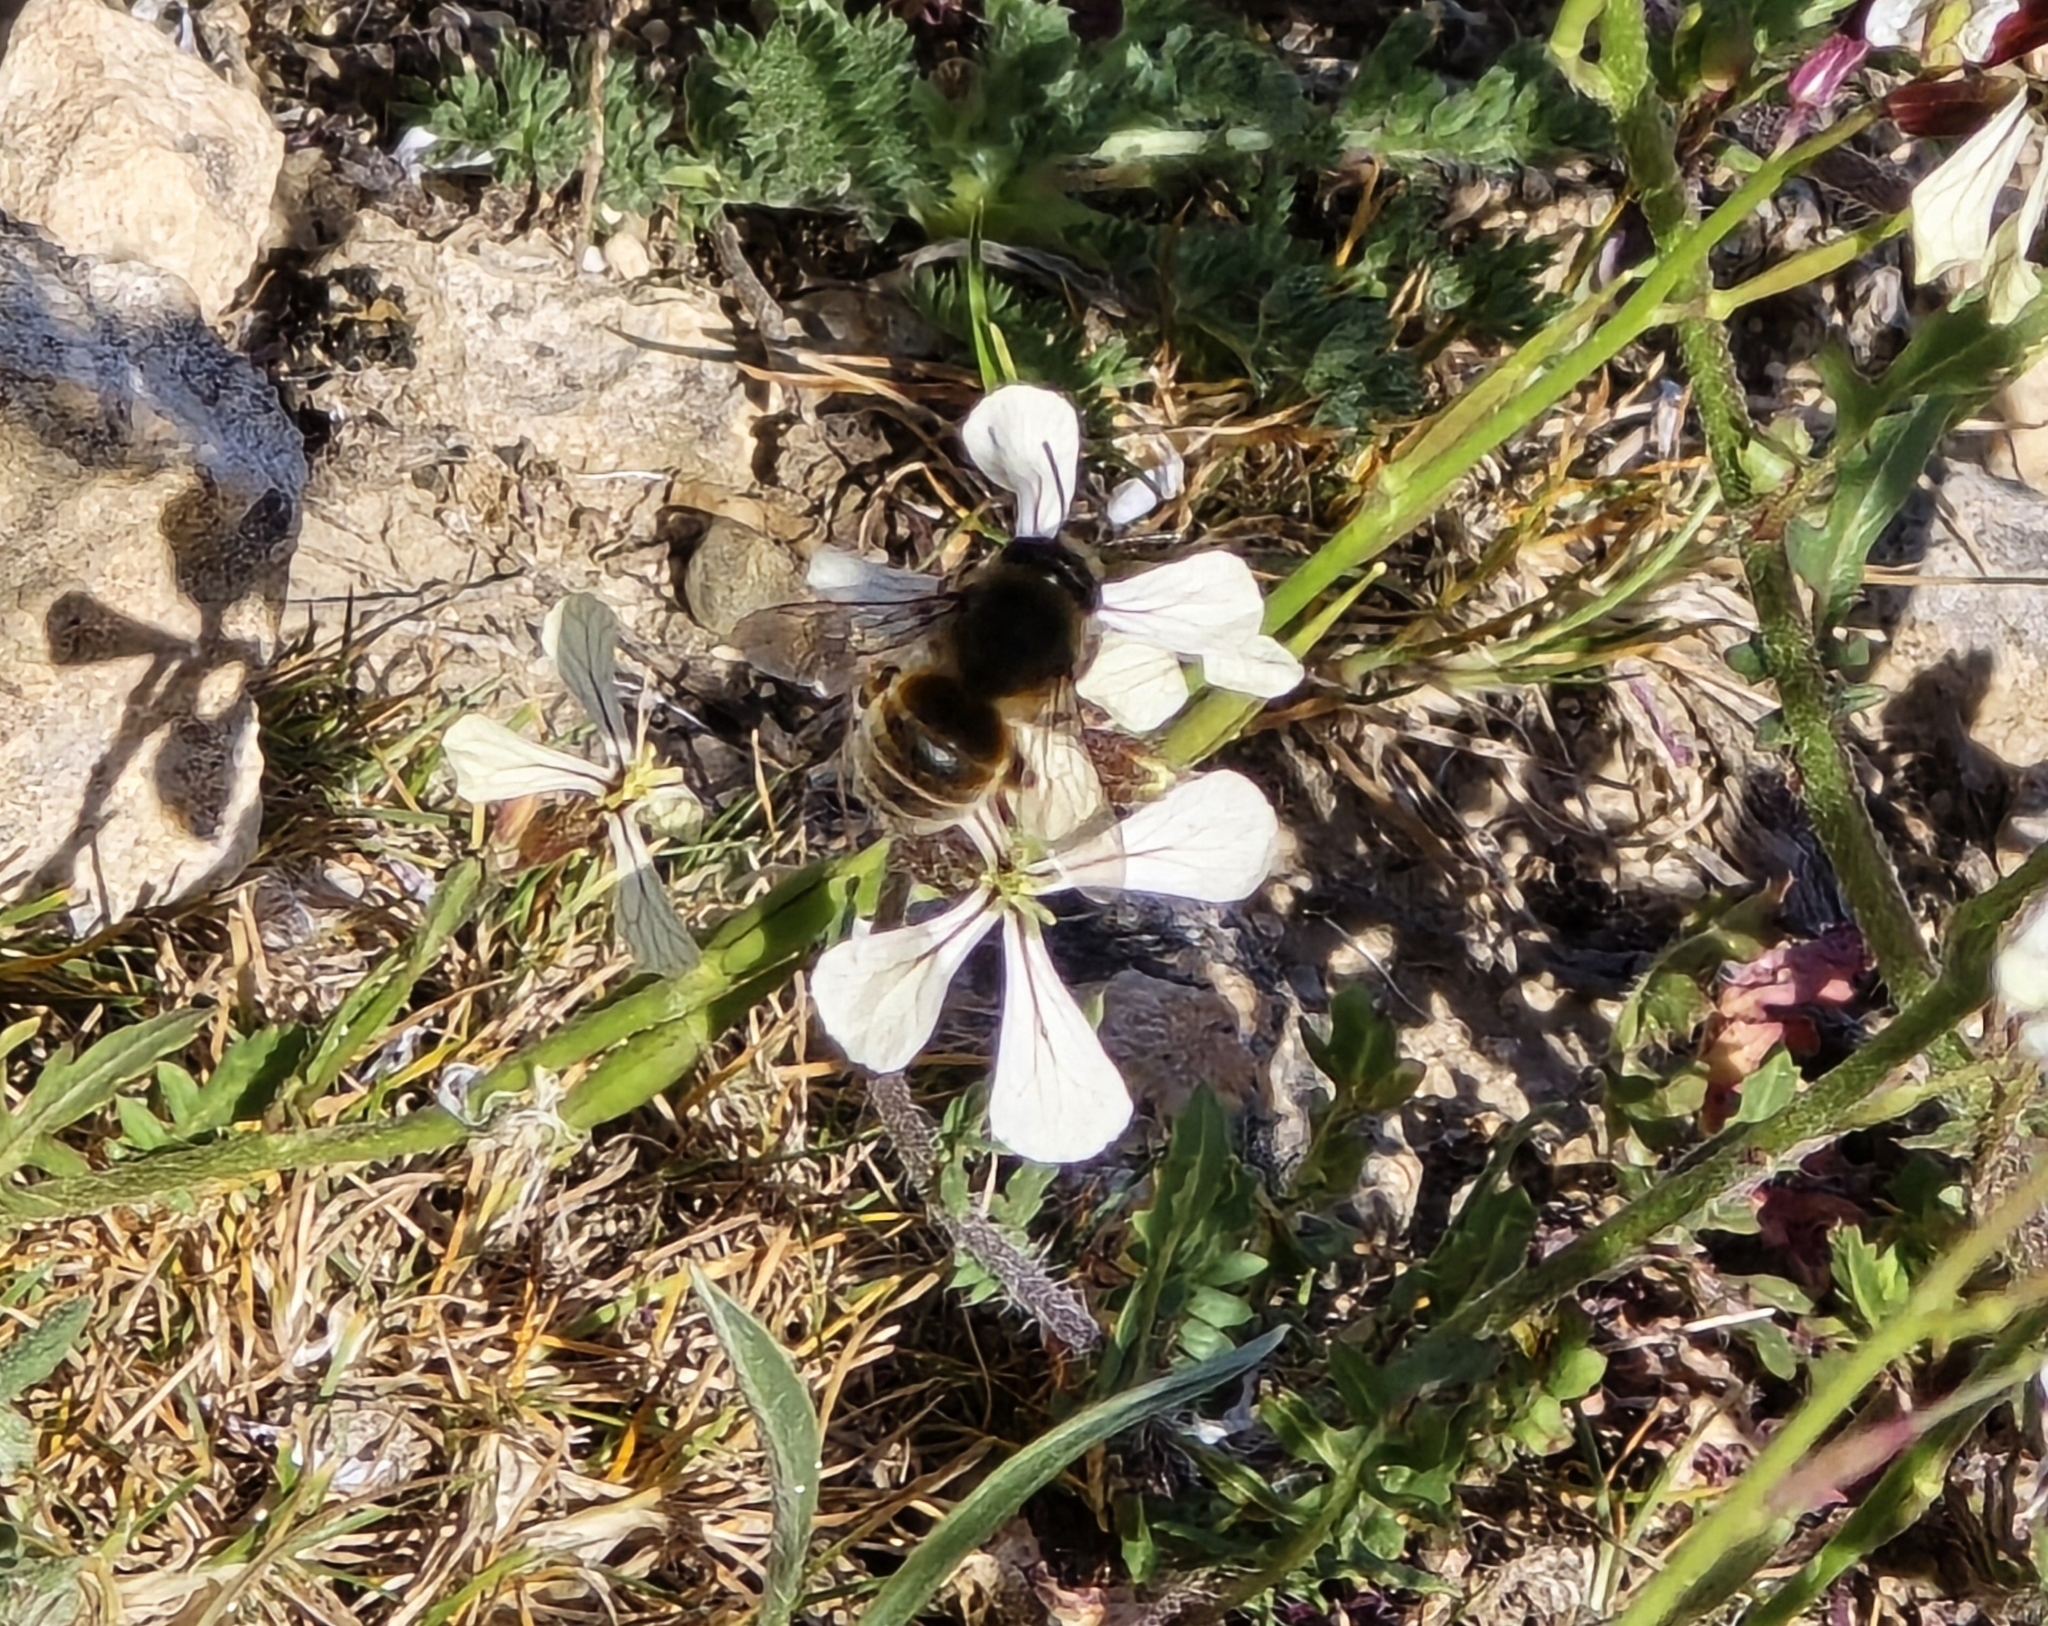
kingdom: Animalia
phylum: Arthropoda
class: Insecta
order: Hymenoptera
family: Apidae
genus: Eucera
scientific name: Eucera nigrilabris
